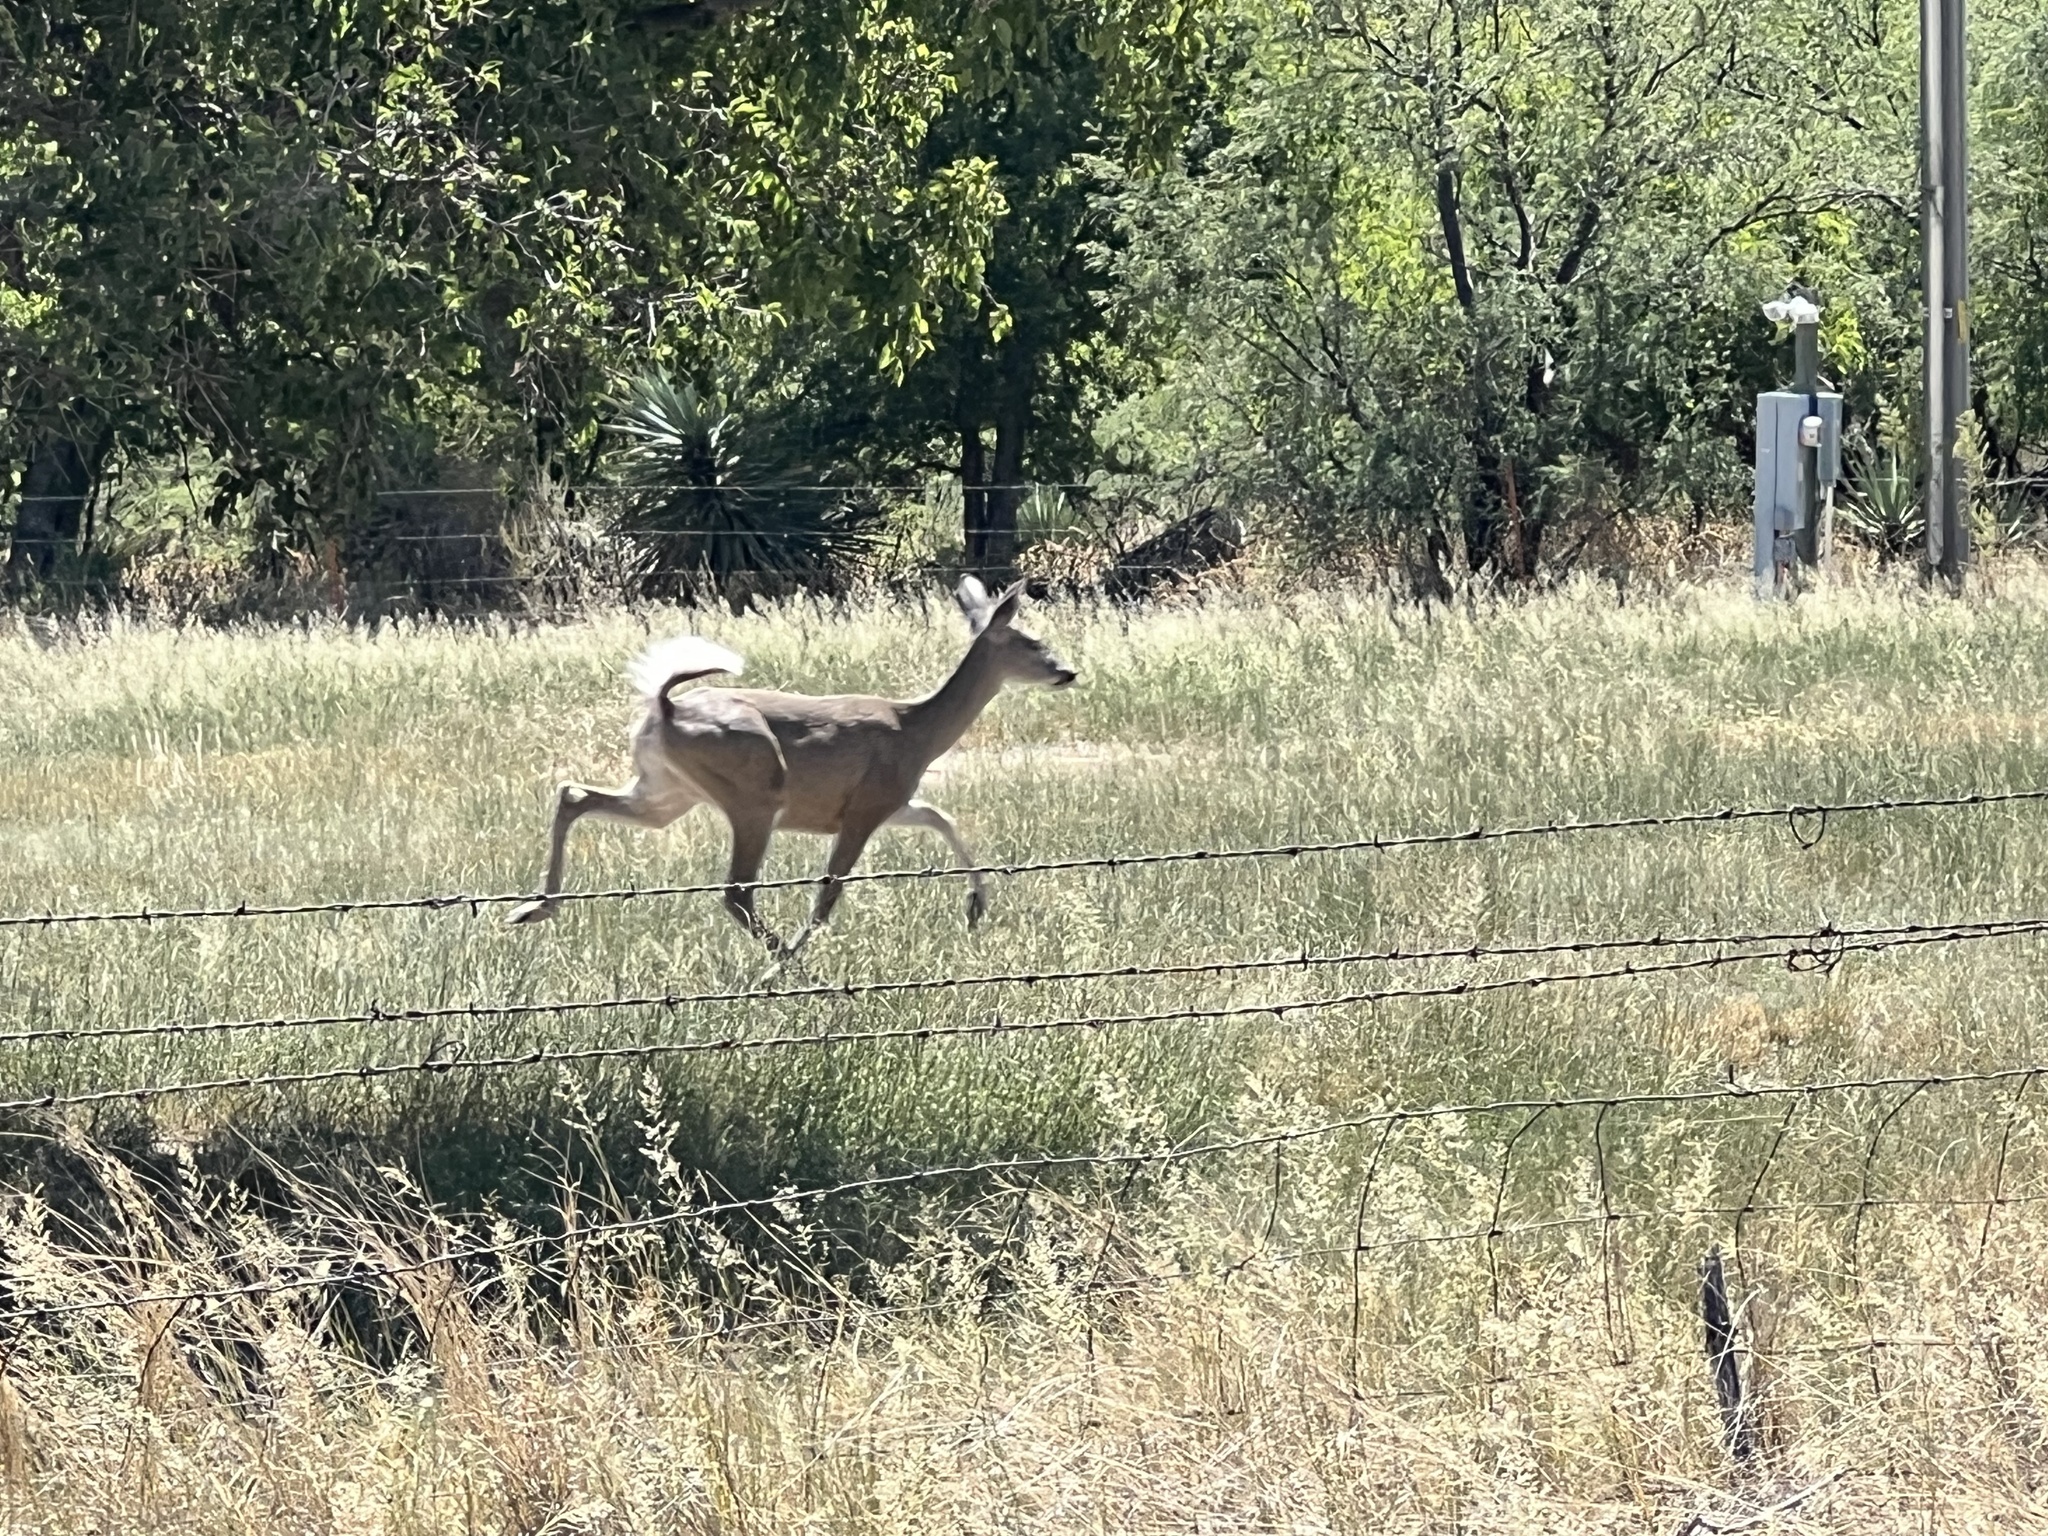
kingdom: Animalia
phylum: Chordata
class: Mammalia
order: Artiodactyla
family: Cervidae
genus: Odocoileus
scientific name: Odocoileus virginianus
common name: White-tailed deer
